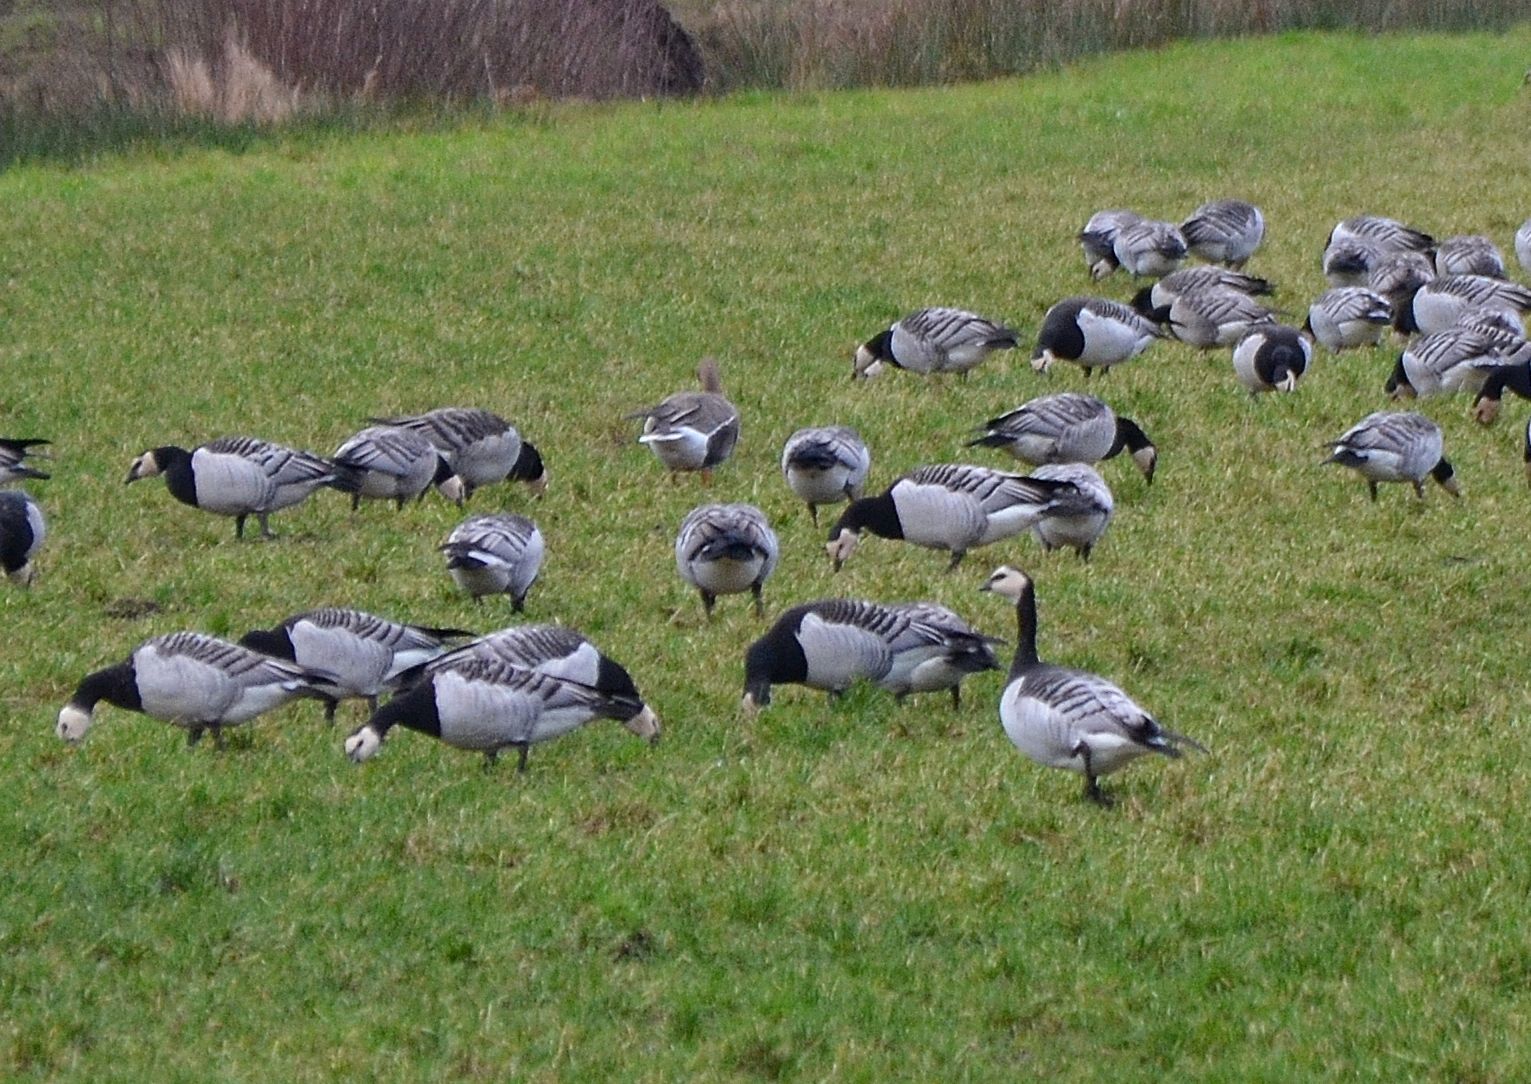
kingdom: Animalia
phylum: Chordata
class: Aves
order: Anseriformes
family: Anatidae
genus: Branta
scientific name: Branta leucopsis
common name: Barnacle goose
